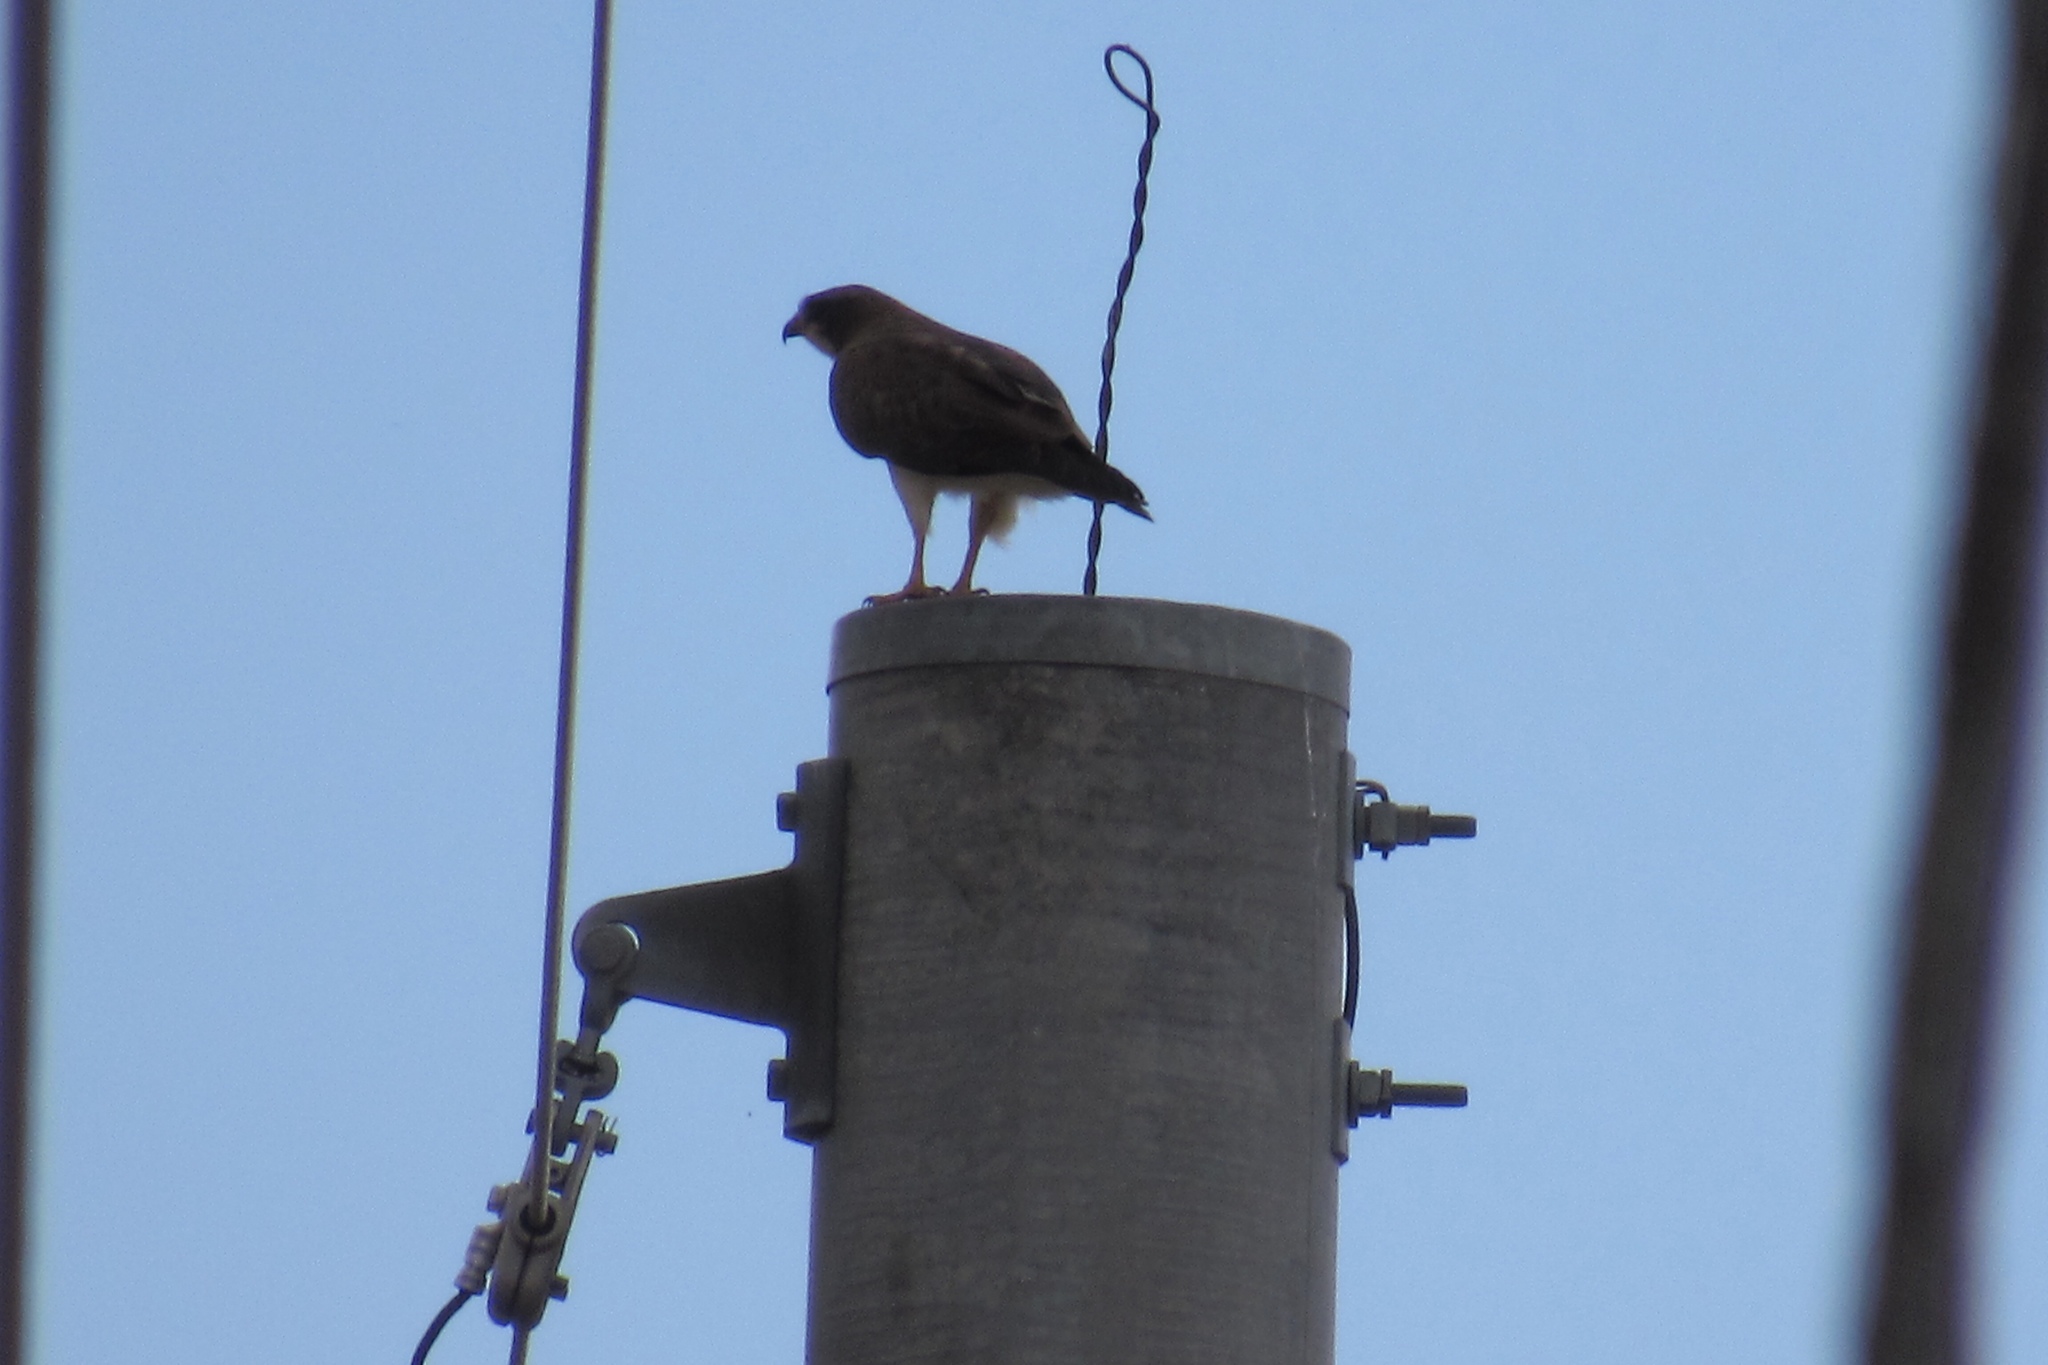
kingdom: Animalia
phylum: Chordata
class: Aves
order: Accipitriformes
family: Accipitridae
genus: Buteo
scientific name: Buteo swainsoni
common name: Swainson's hawk
